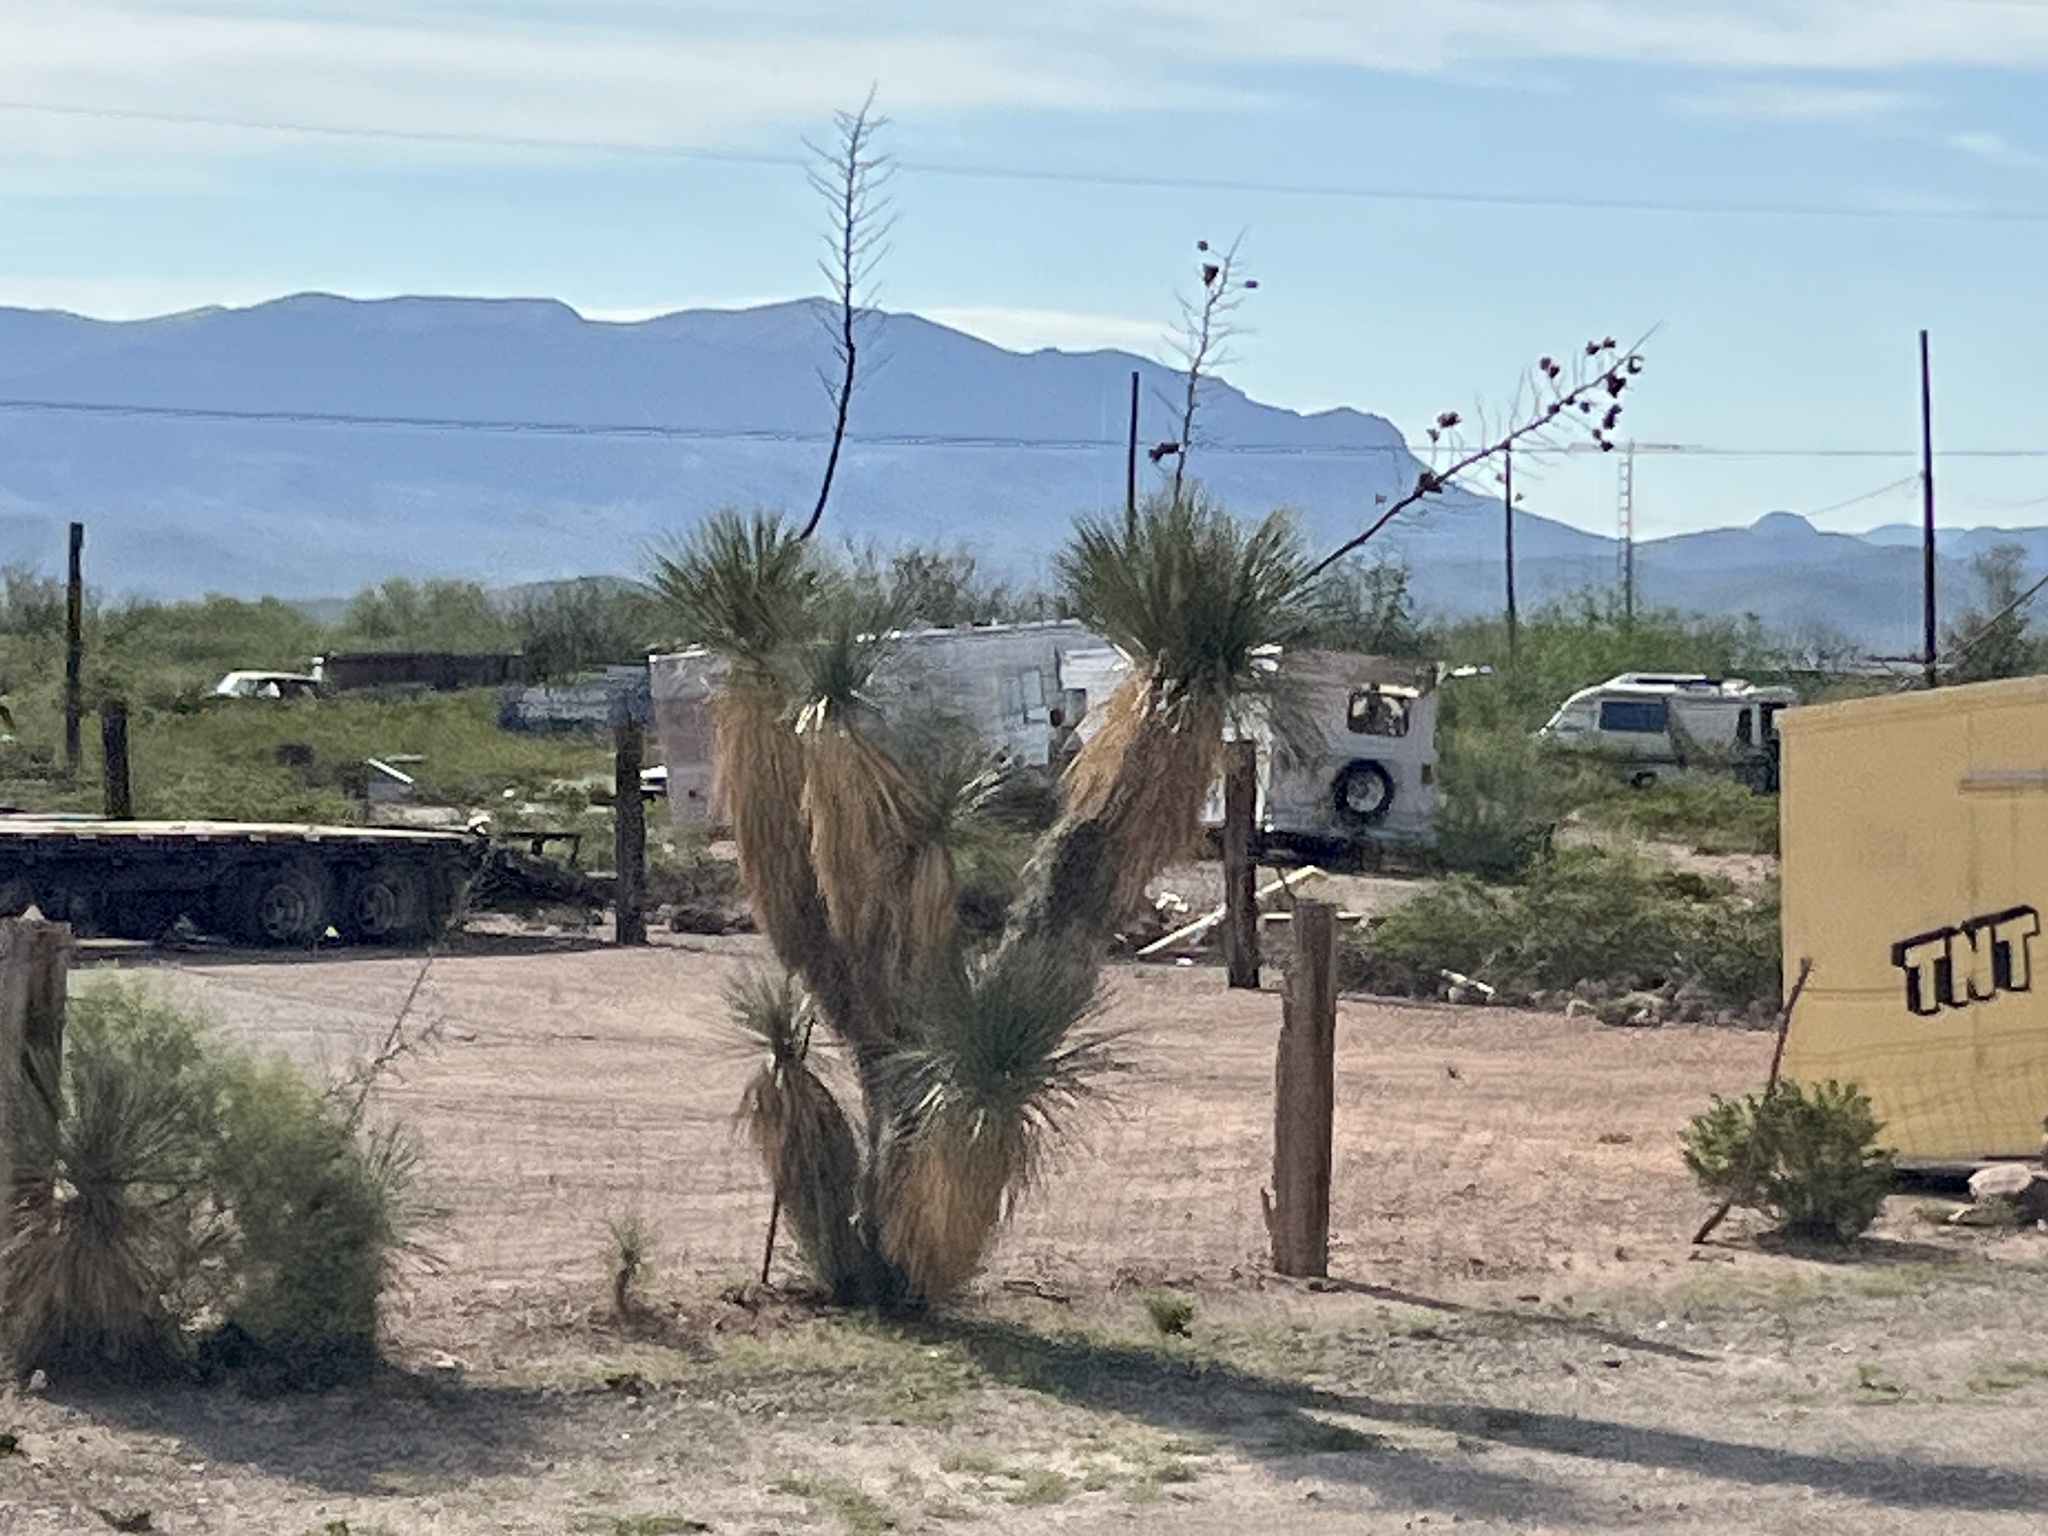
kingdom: Plantae
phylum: Tracheophyta
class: Liliopsida
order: Asparagales
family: Asparagaceae
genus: Yucca
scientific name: Yucca elata
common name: Palmella
